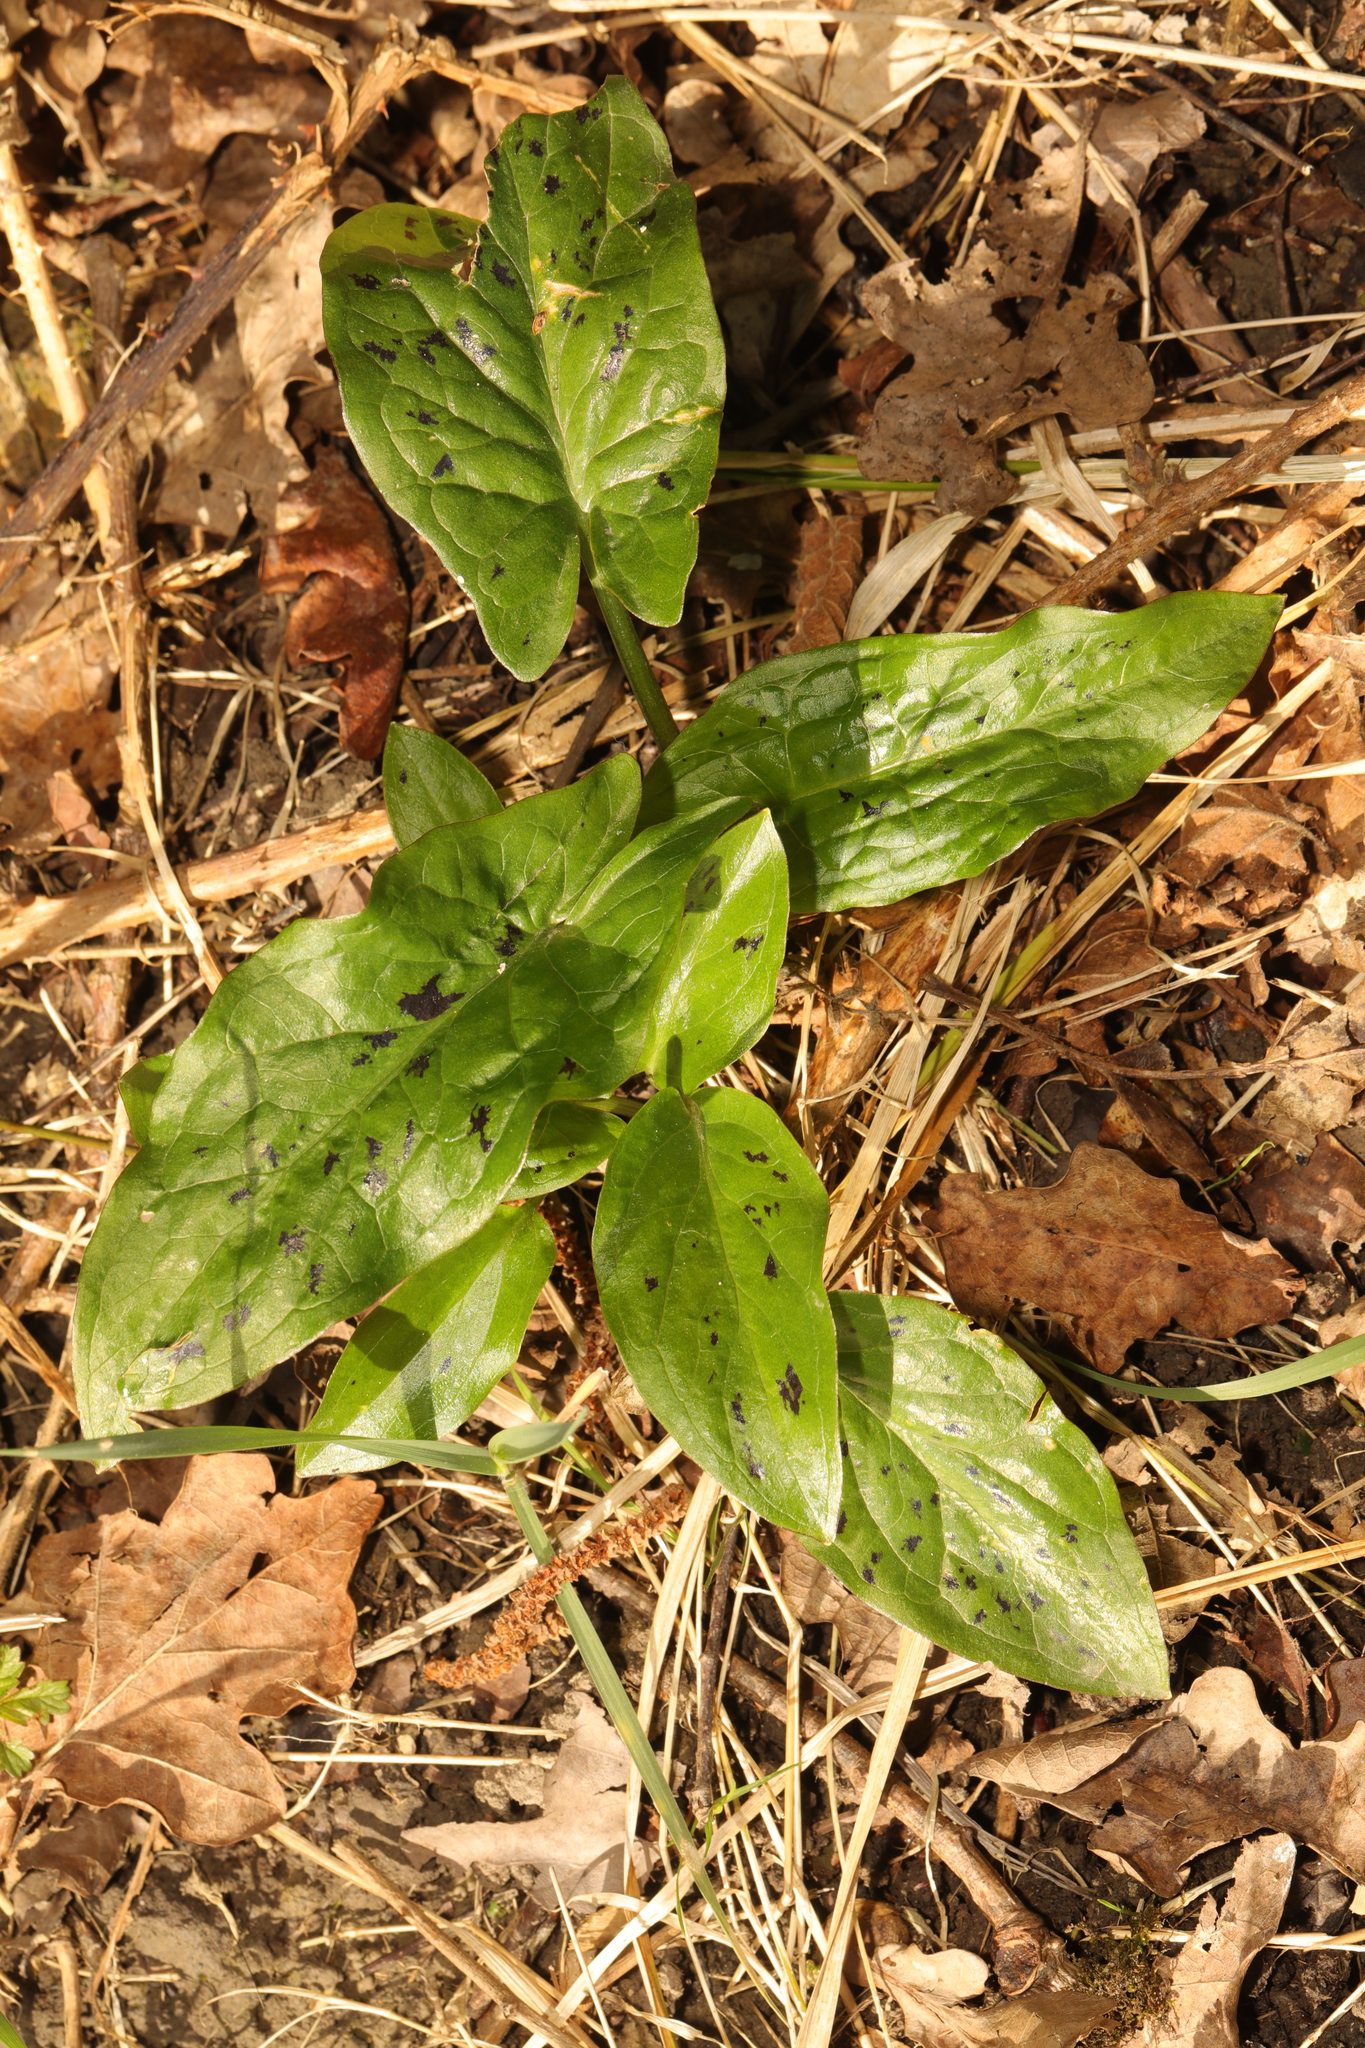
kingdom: Plantae
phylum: Tracheophyta
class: Liliopsida
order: Alismatales
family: Araceae
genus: Arum
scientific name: Arum maculatum
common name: Lords-and-ladies
